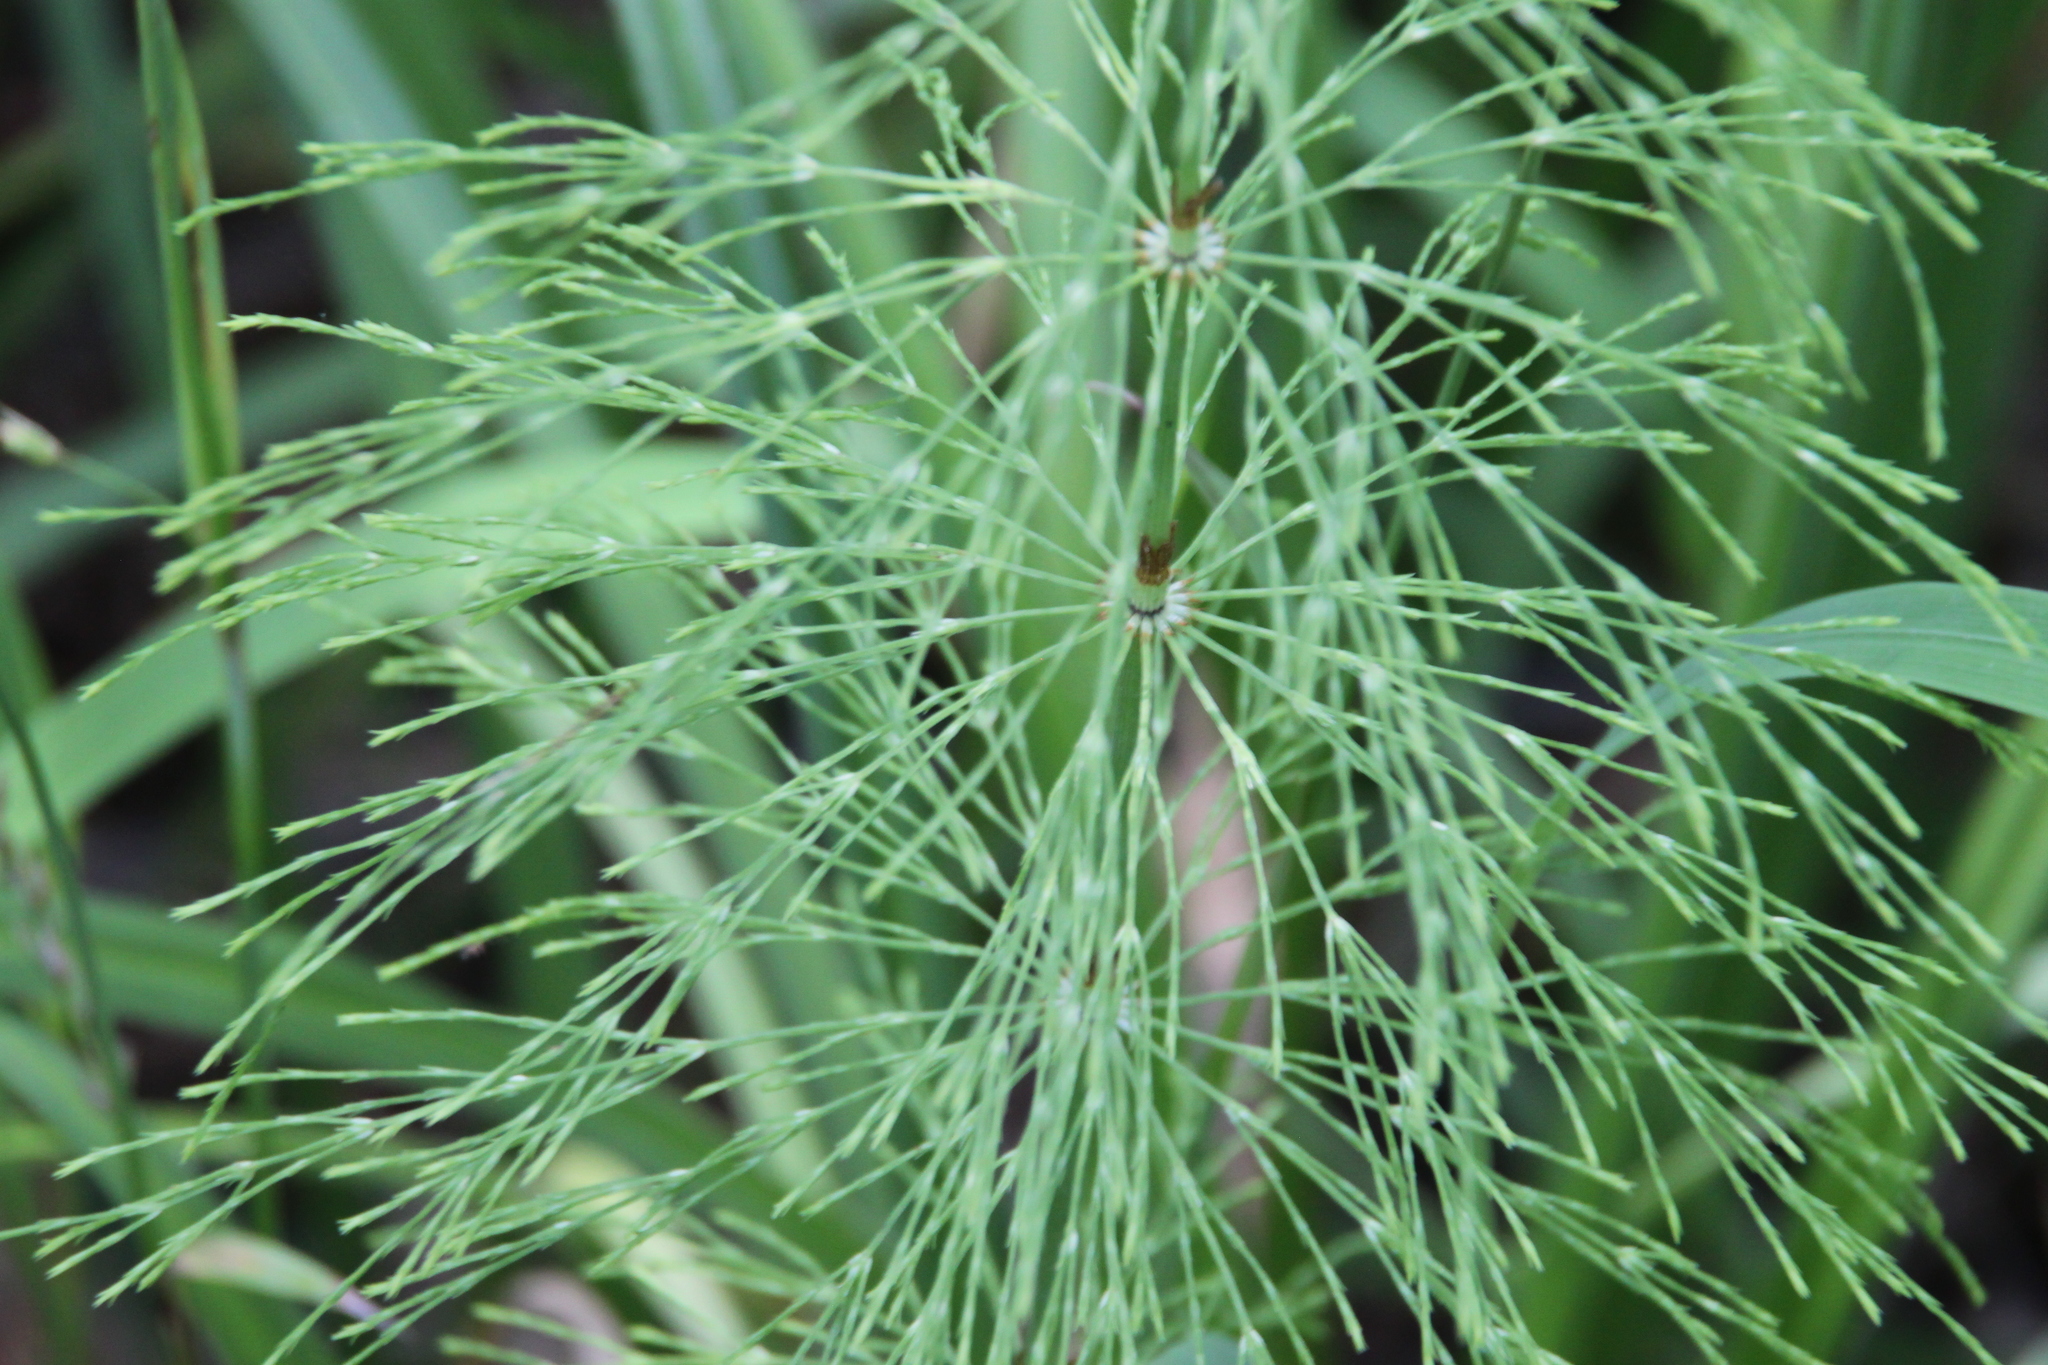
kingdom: Plantae
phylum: Tracheophyta
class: Polypodiopsida
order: Equisetales
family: Equisetaceae
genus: Equisetum
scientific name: Equisetum sylvaticum
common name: Wood horsetail
